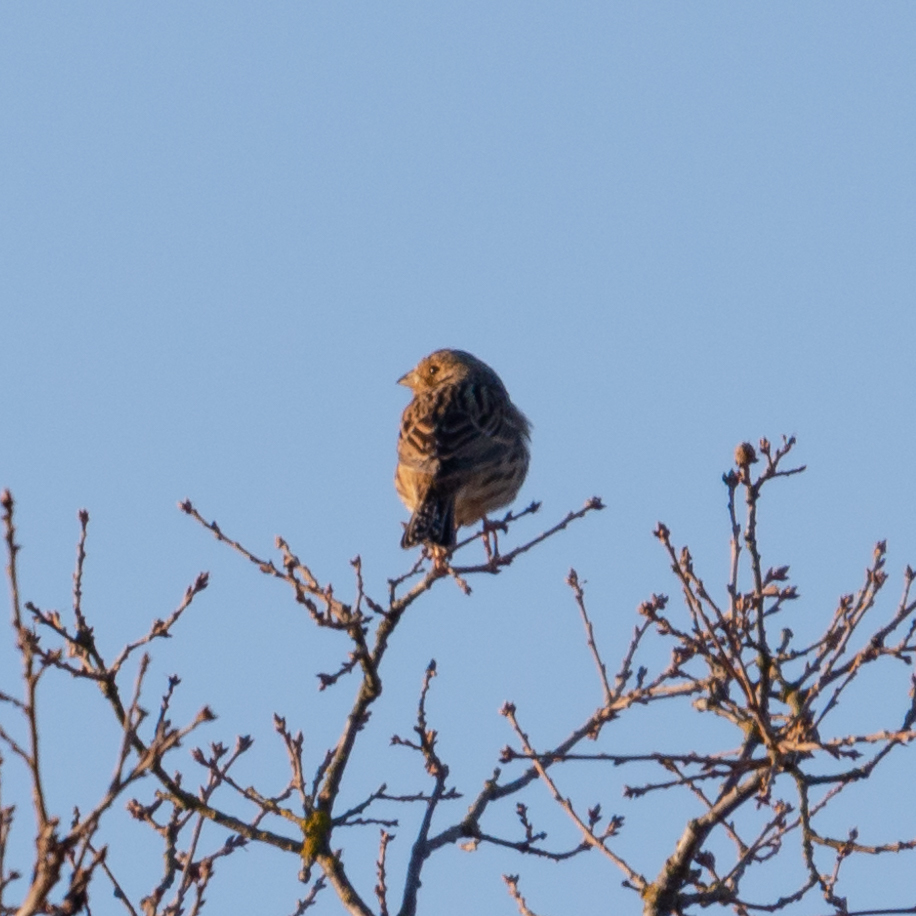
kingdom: Animalia
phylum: Chordata
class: Aves
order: Passeriformes
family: Emberizidae
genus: Emberiza
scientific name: Emberiza calandra
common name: Corn bunting
